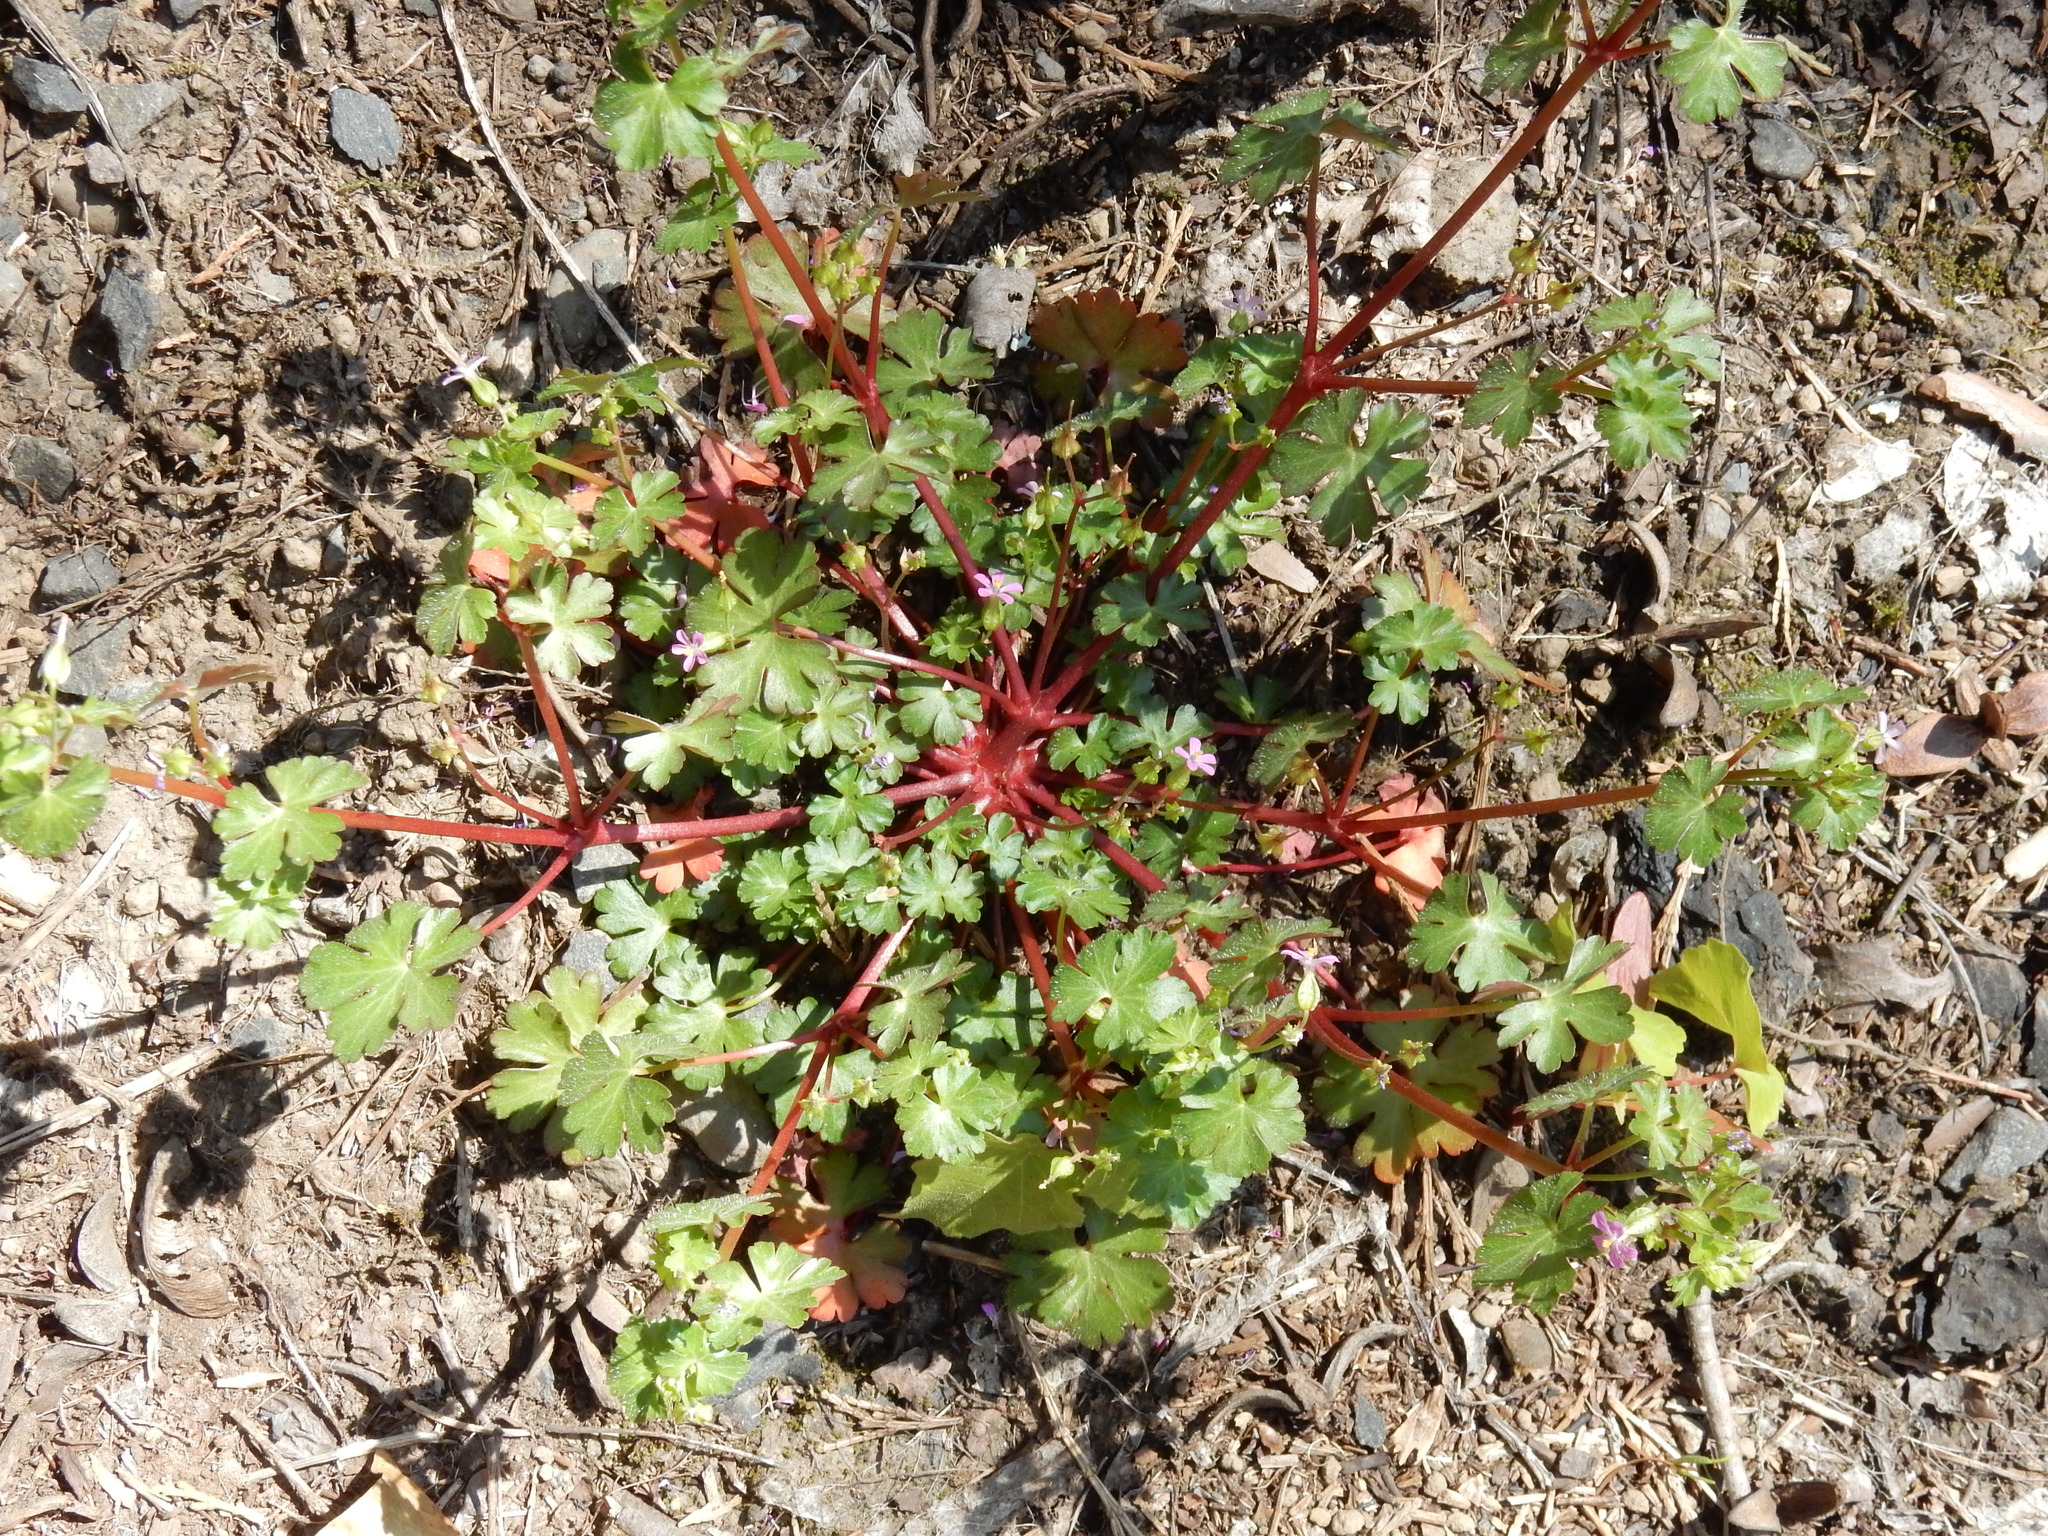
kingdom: Plantae
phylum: Tracheophyta
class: Magnoliopsida
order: Geraniales
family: Geraniaceae
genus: Geranium
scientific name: Geranium lucidum
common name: Shining crane's-bill
